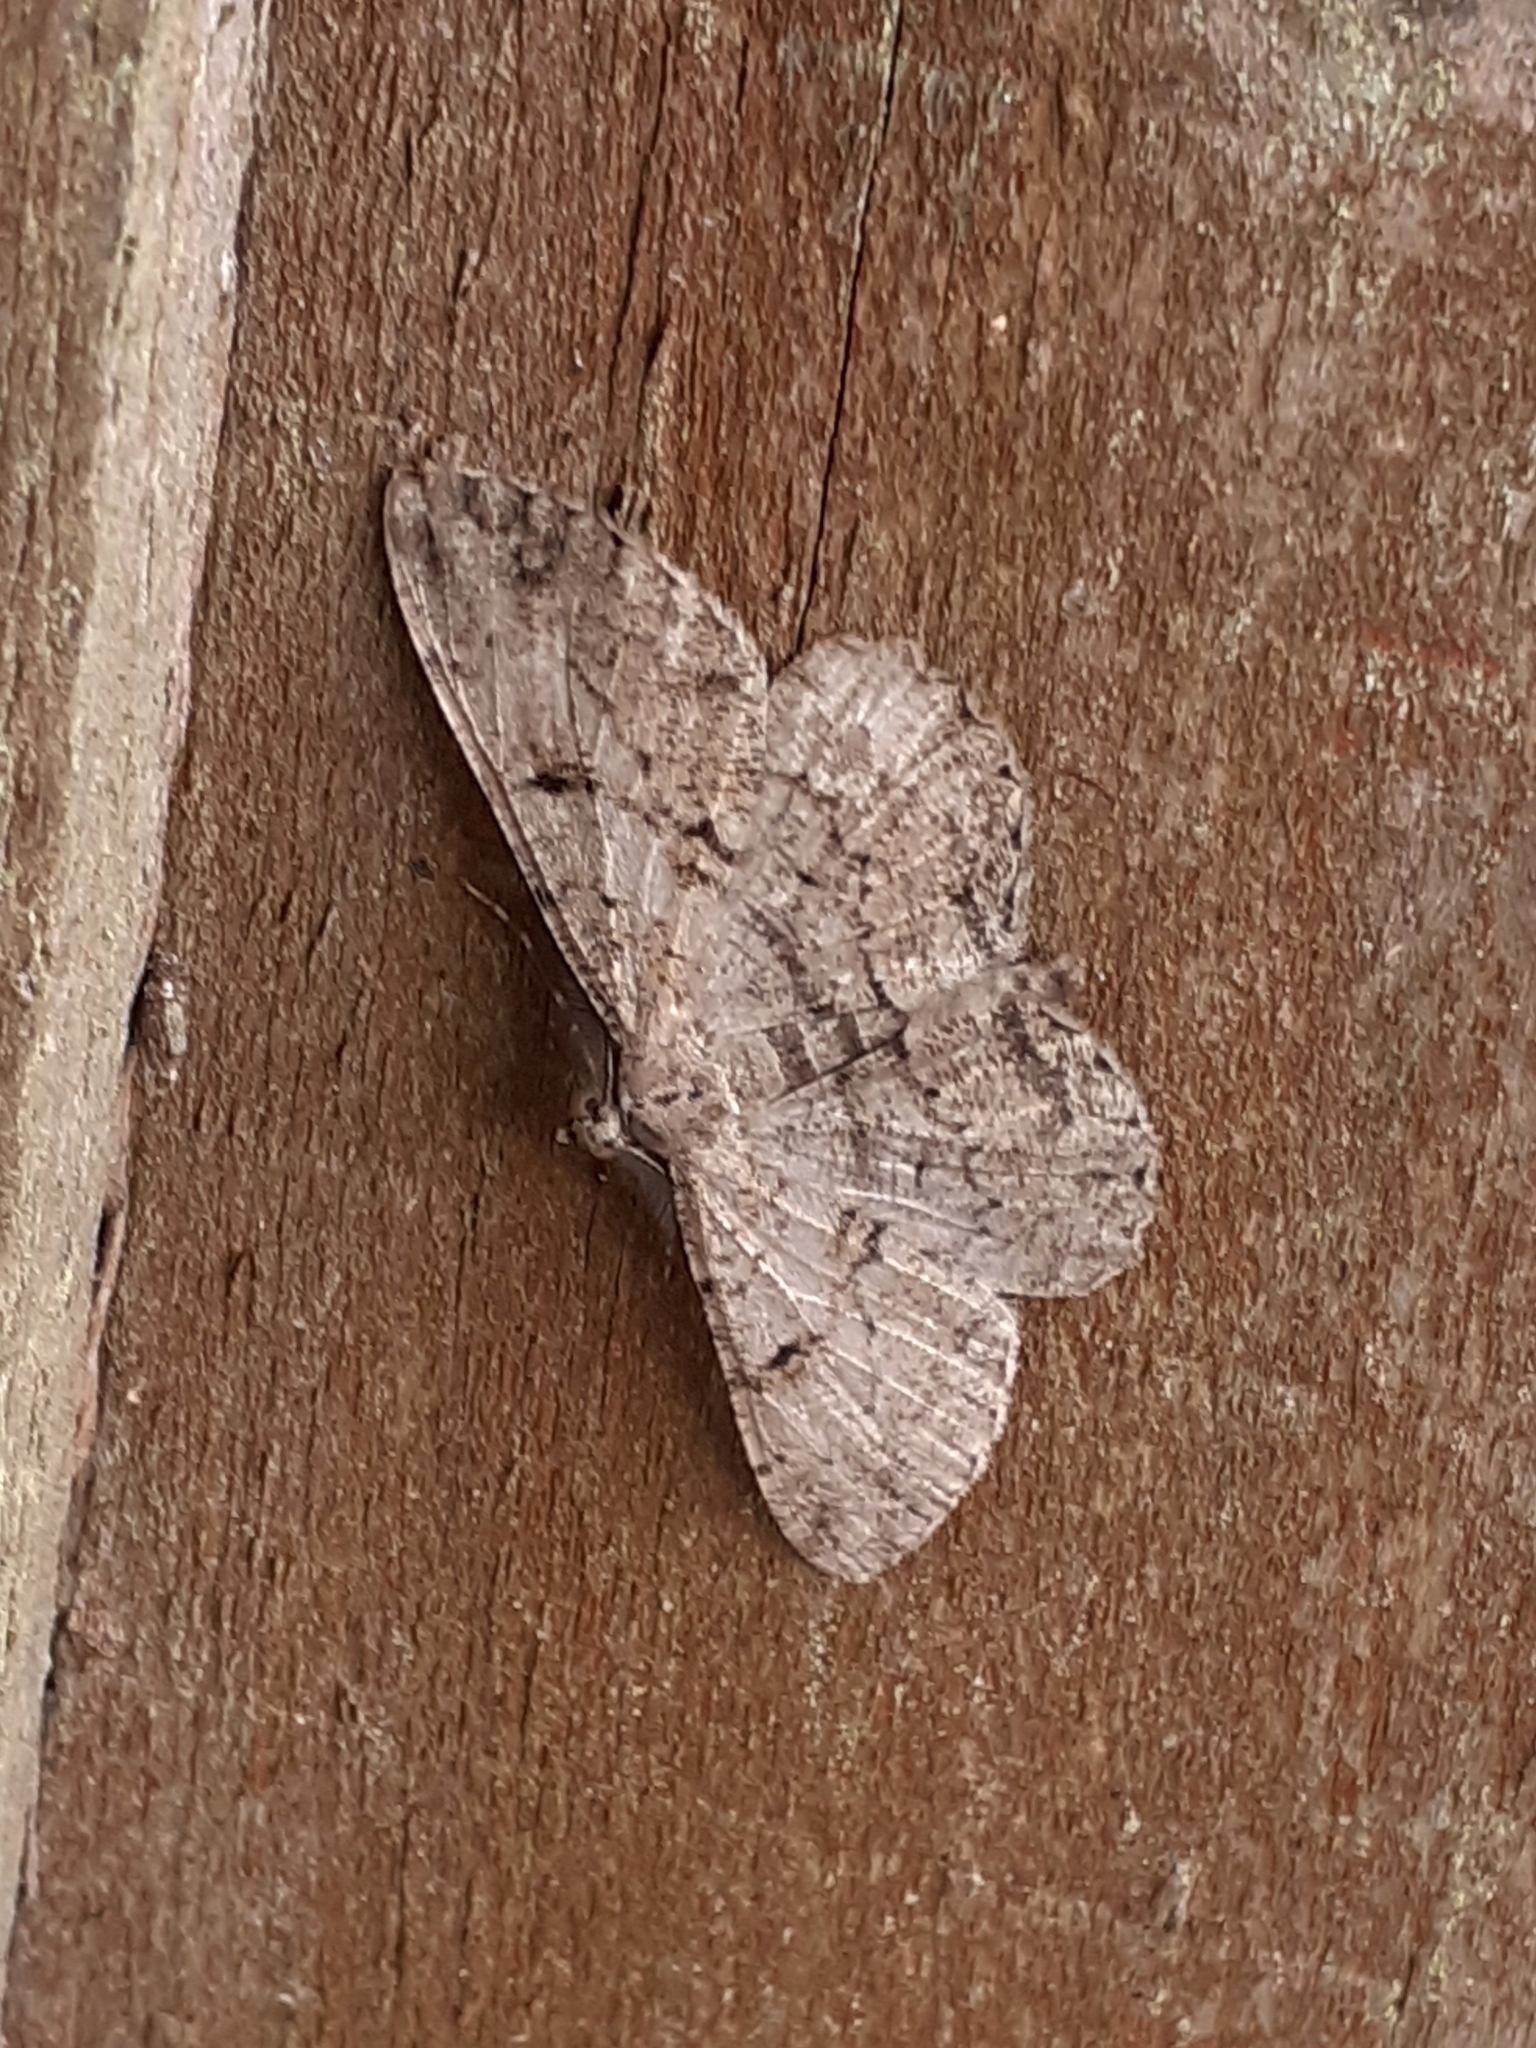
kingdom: Animalia
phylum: Arthropoda
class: Insecta
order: Lepidoptera
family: Geometridae
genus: Peribatodes
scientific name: Peribatodes rhomboidaria
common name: Willow beauty
